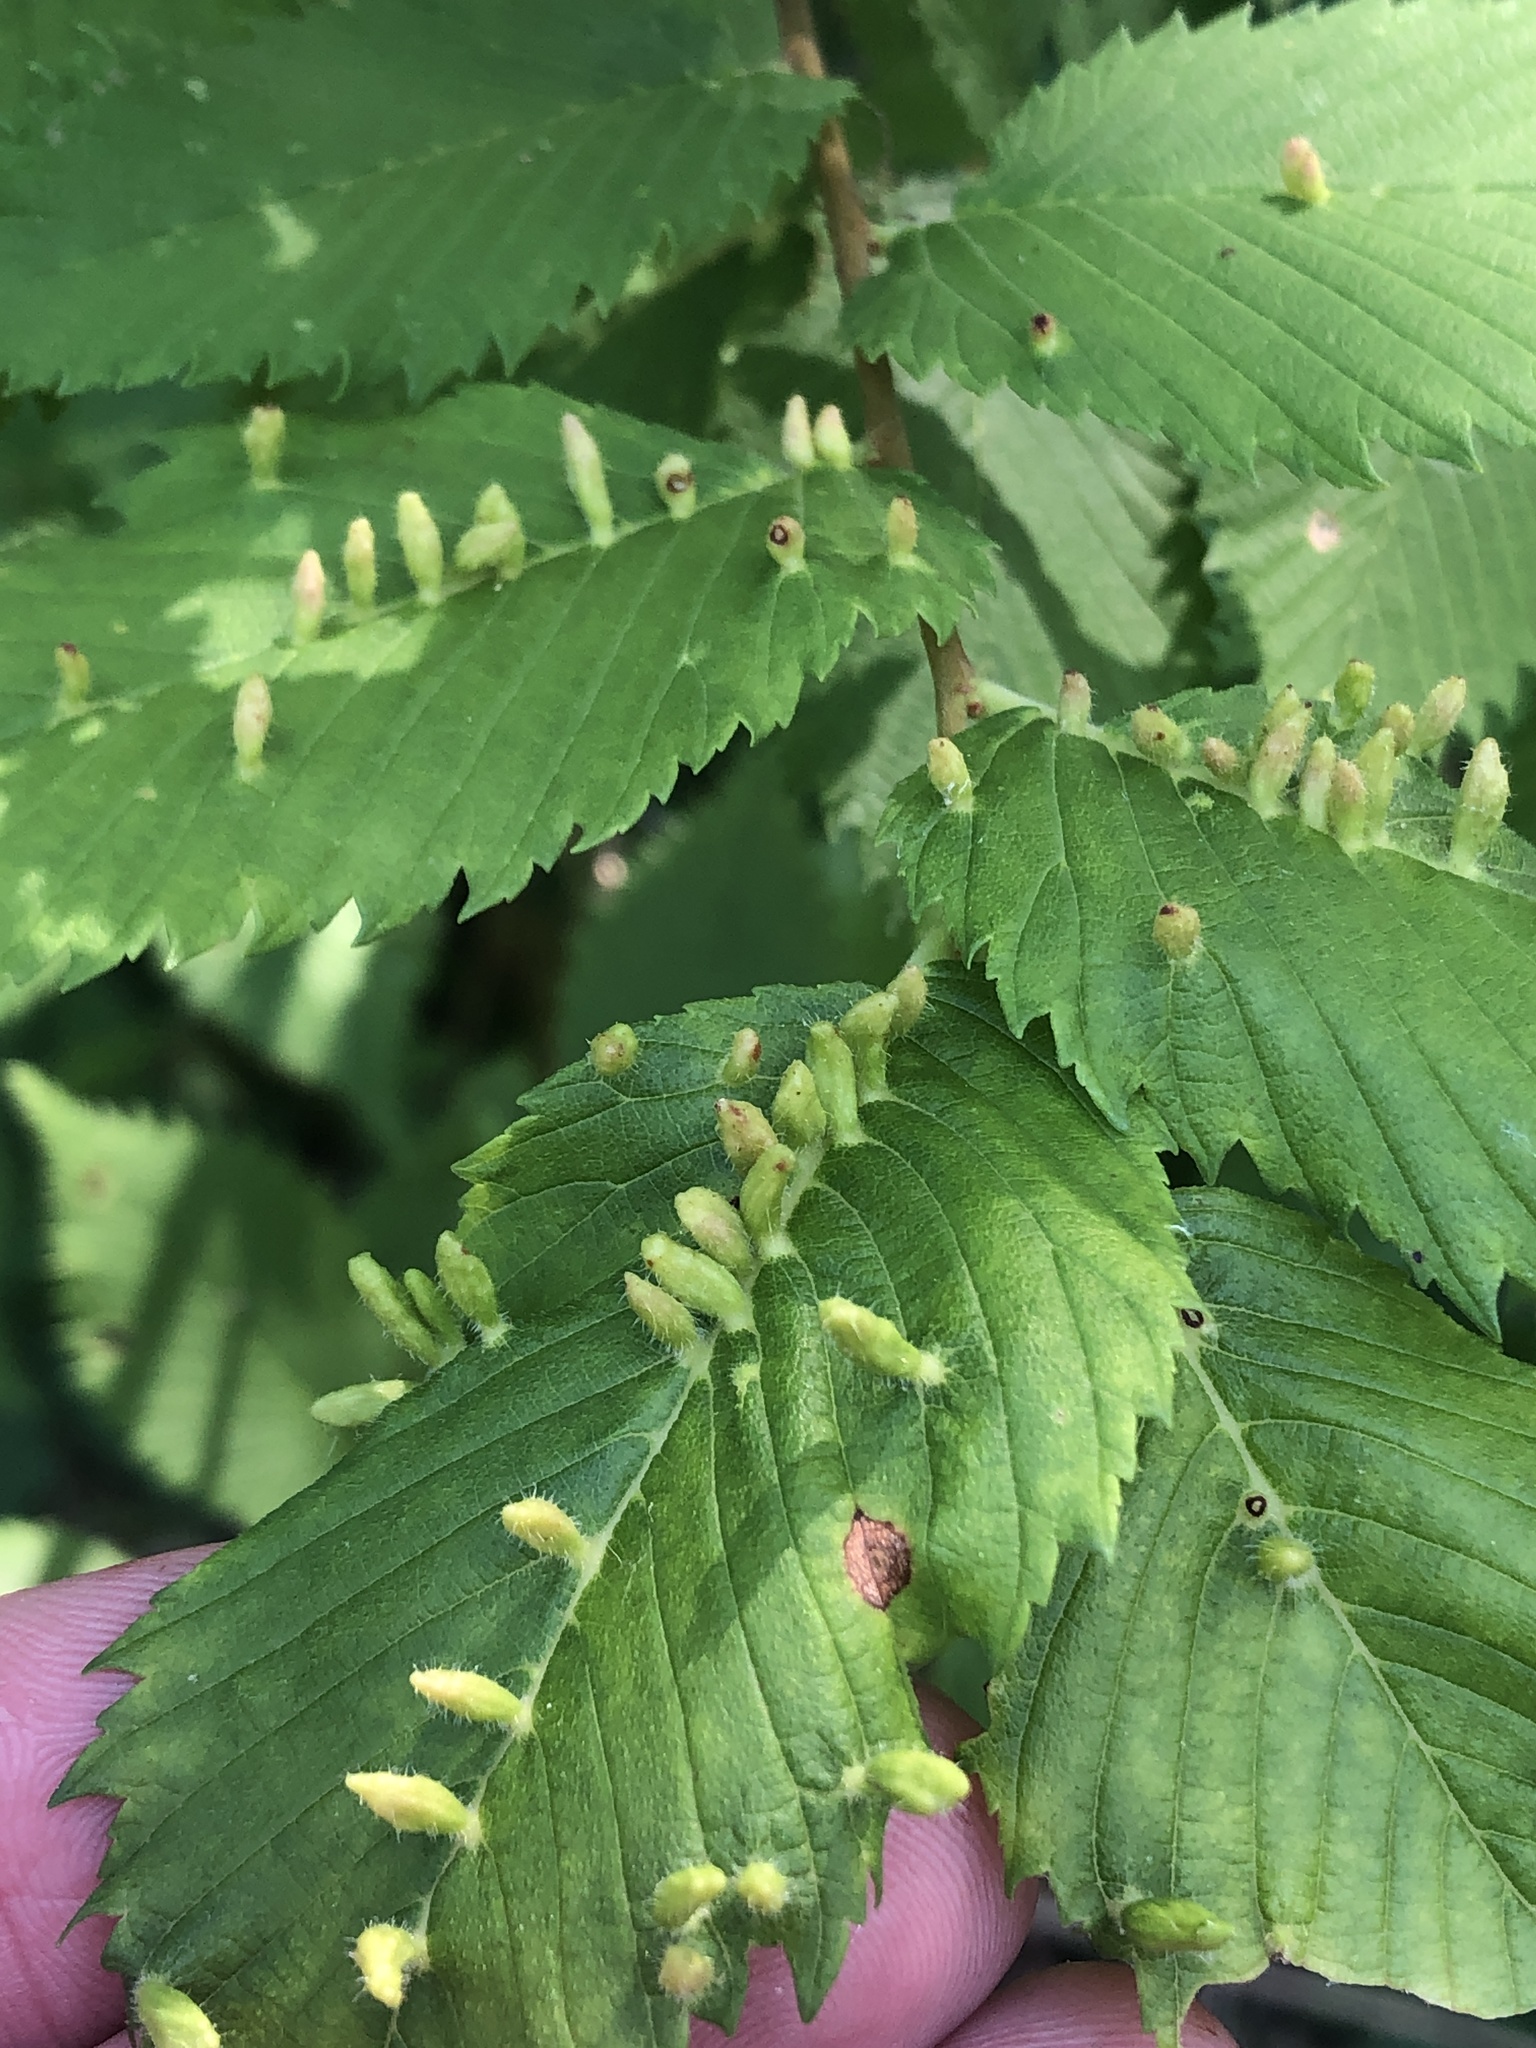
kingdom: Animalia
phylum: Arthropoda
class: Arachnida
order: Trombidiformes
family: Eriophyidae
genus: Aceria
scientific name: Aceria
